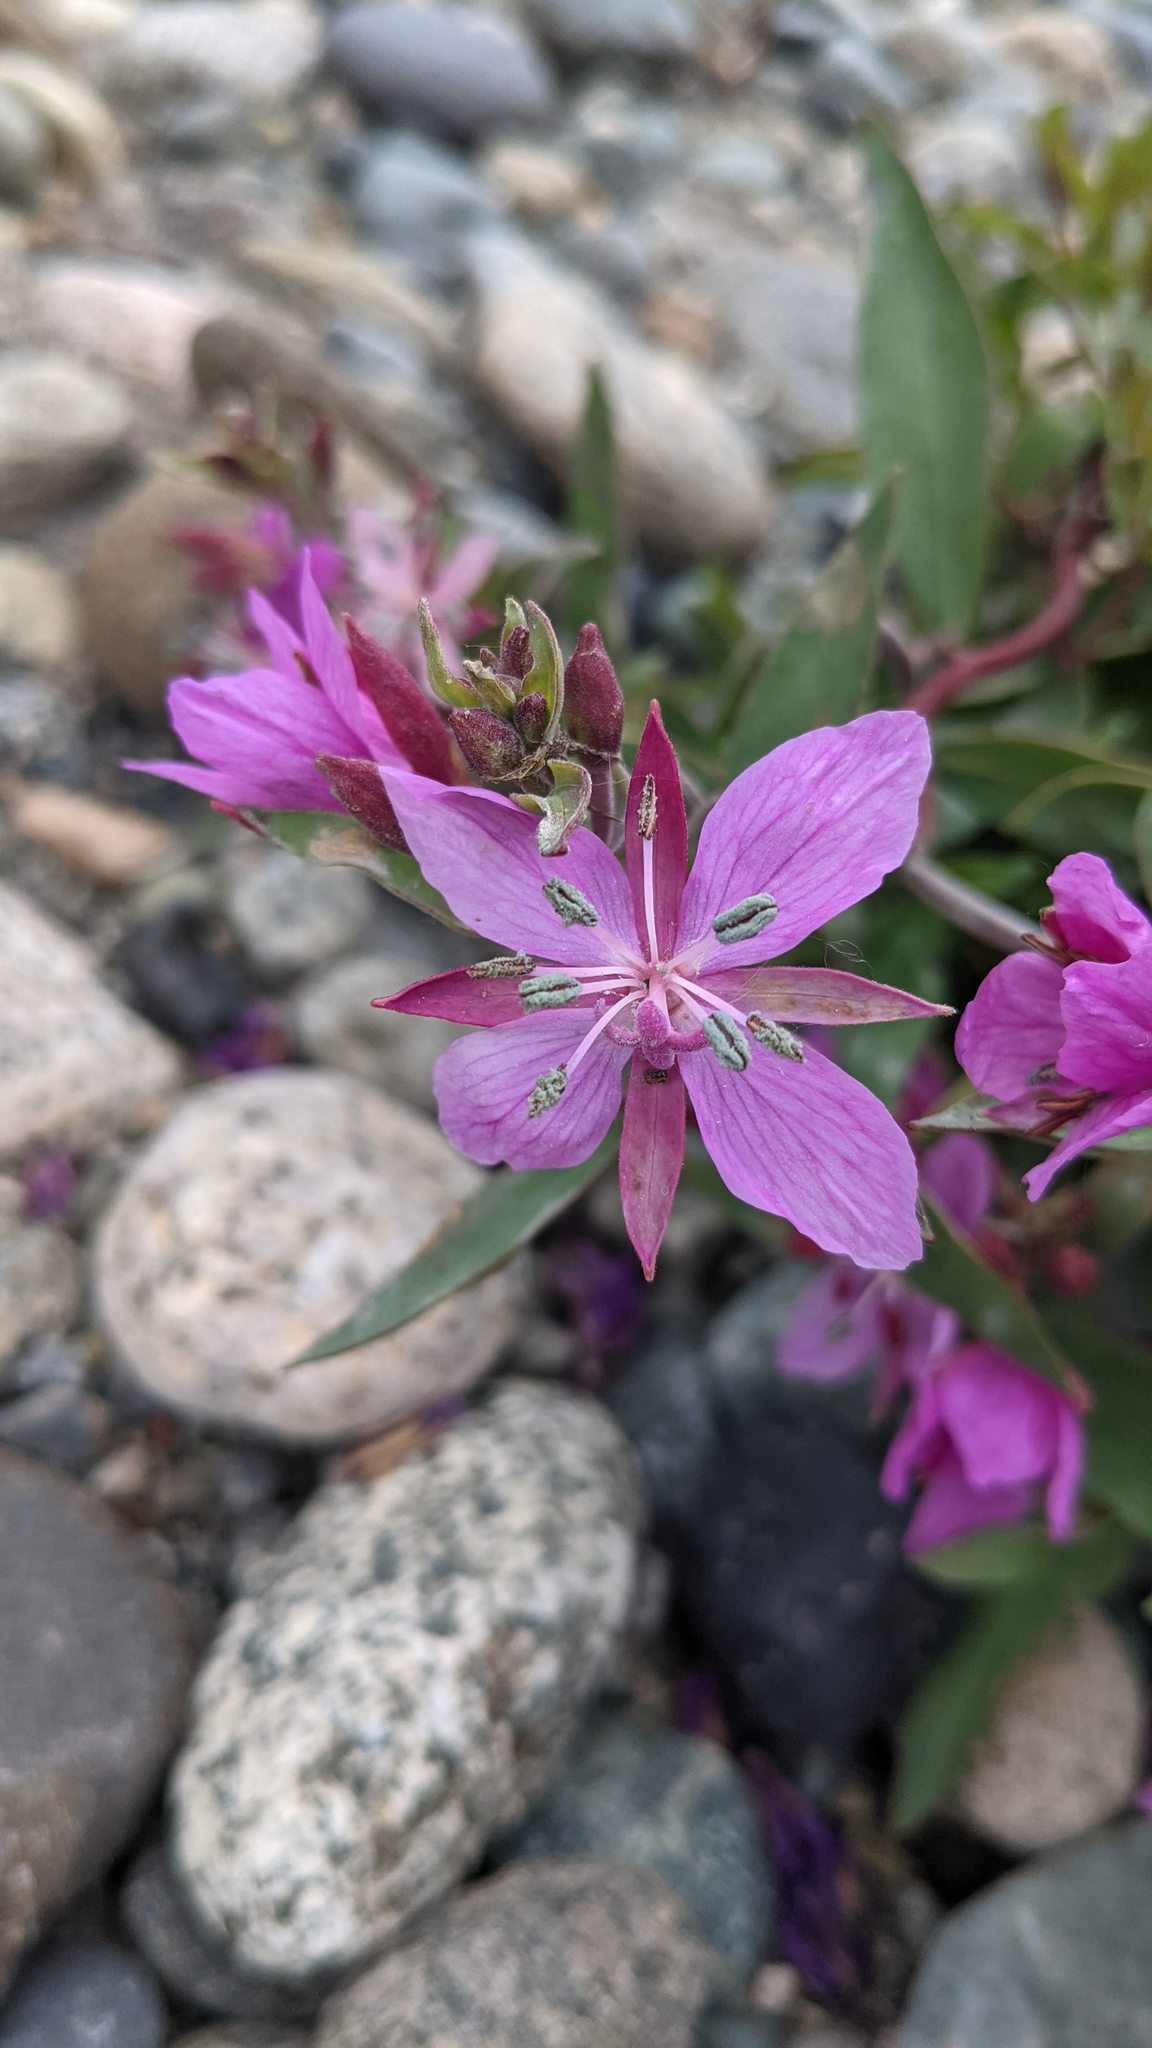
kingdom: Plantae
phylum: Tracheophyta
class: Magnoliopsida
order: Myrtales
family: Onagraceae
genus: Chamaenerion
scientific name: Chamaenerion latifolium
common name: Dwarf fireweed
